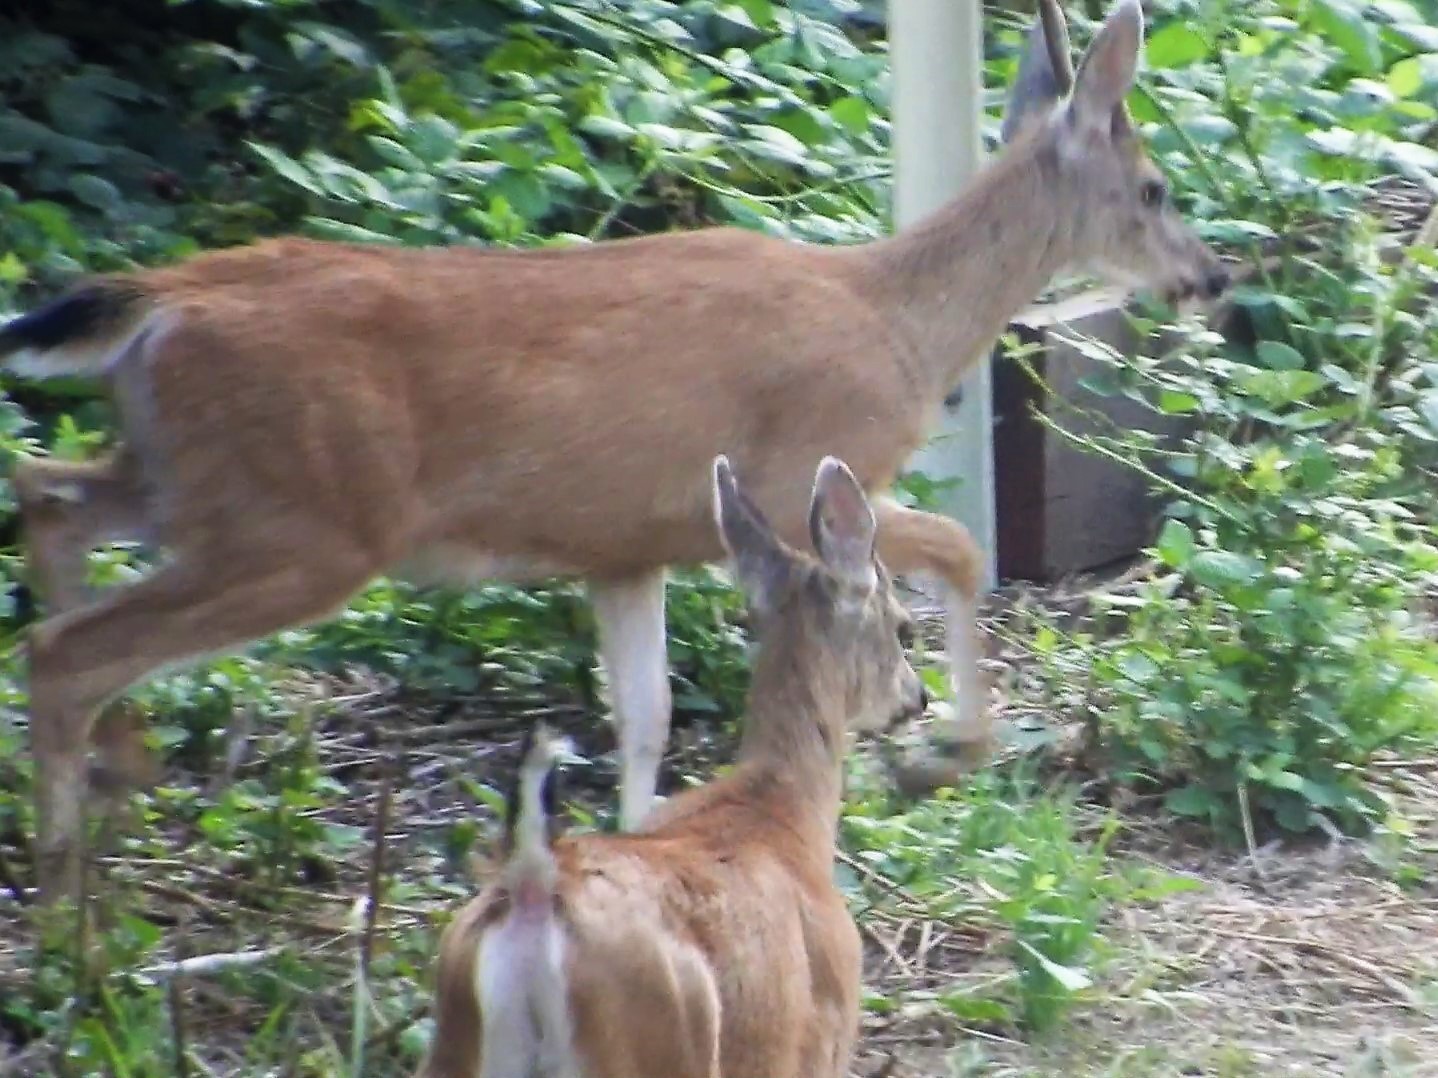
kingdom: Animalia
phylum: Chordata
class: Mammalia
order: Artiodactyla
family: Cervidae
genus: Odocoileus
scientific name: Odocoileus hemionus
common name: Mule deer
